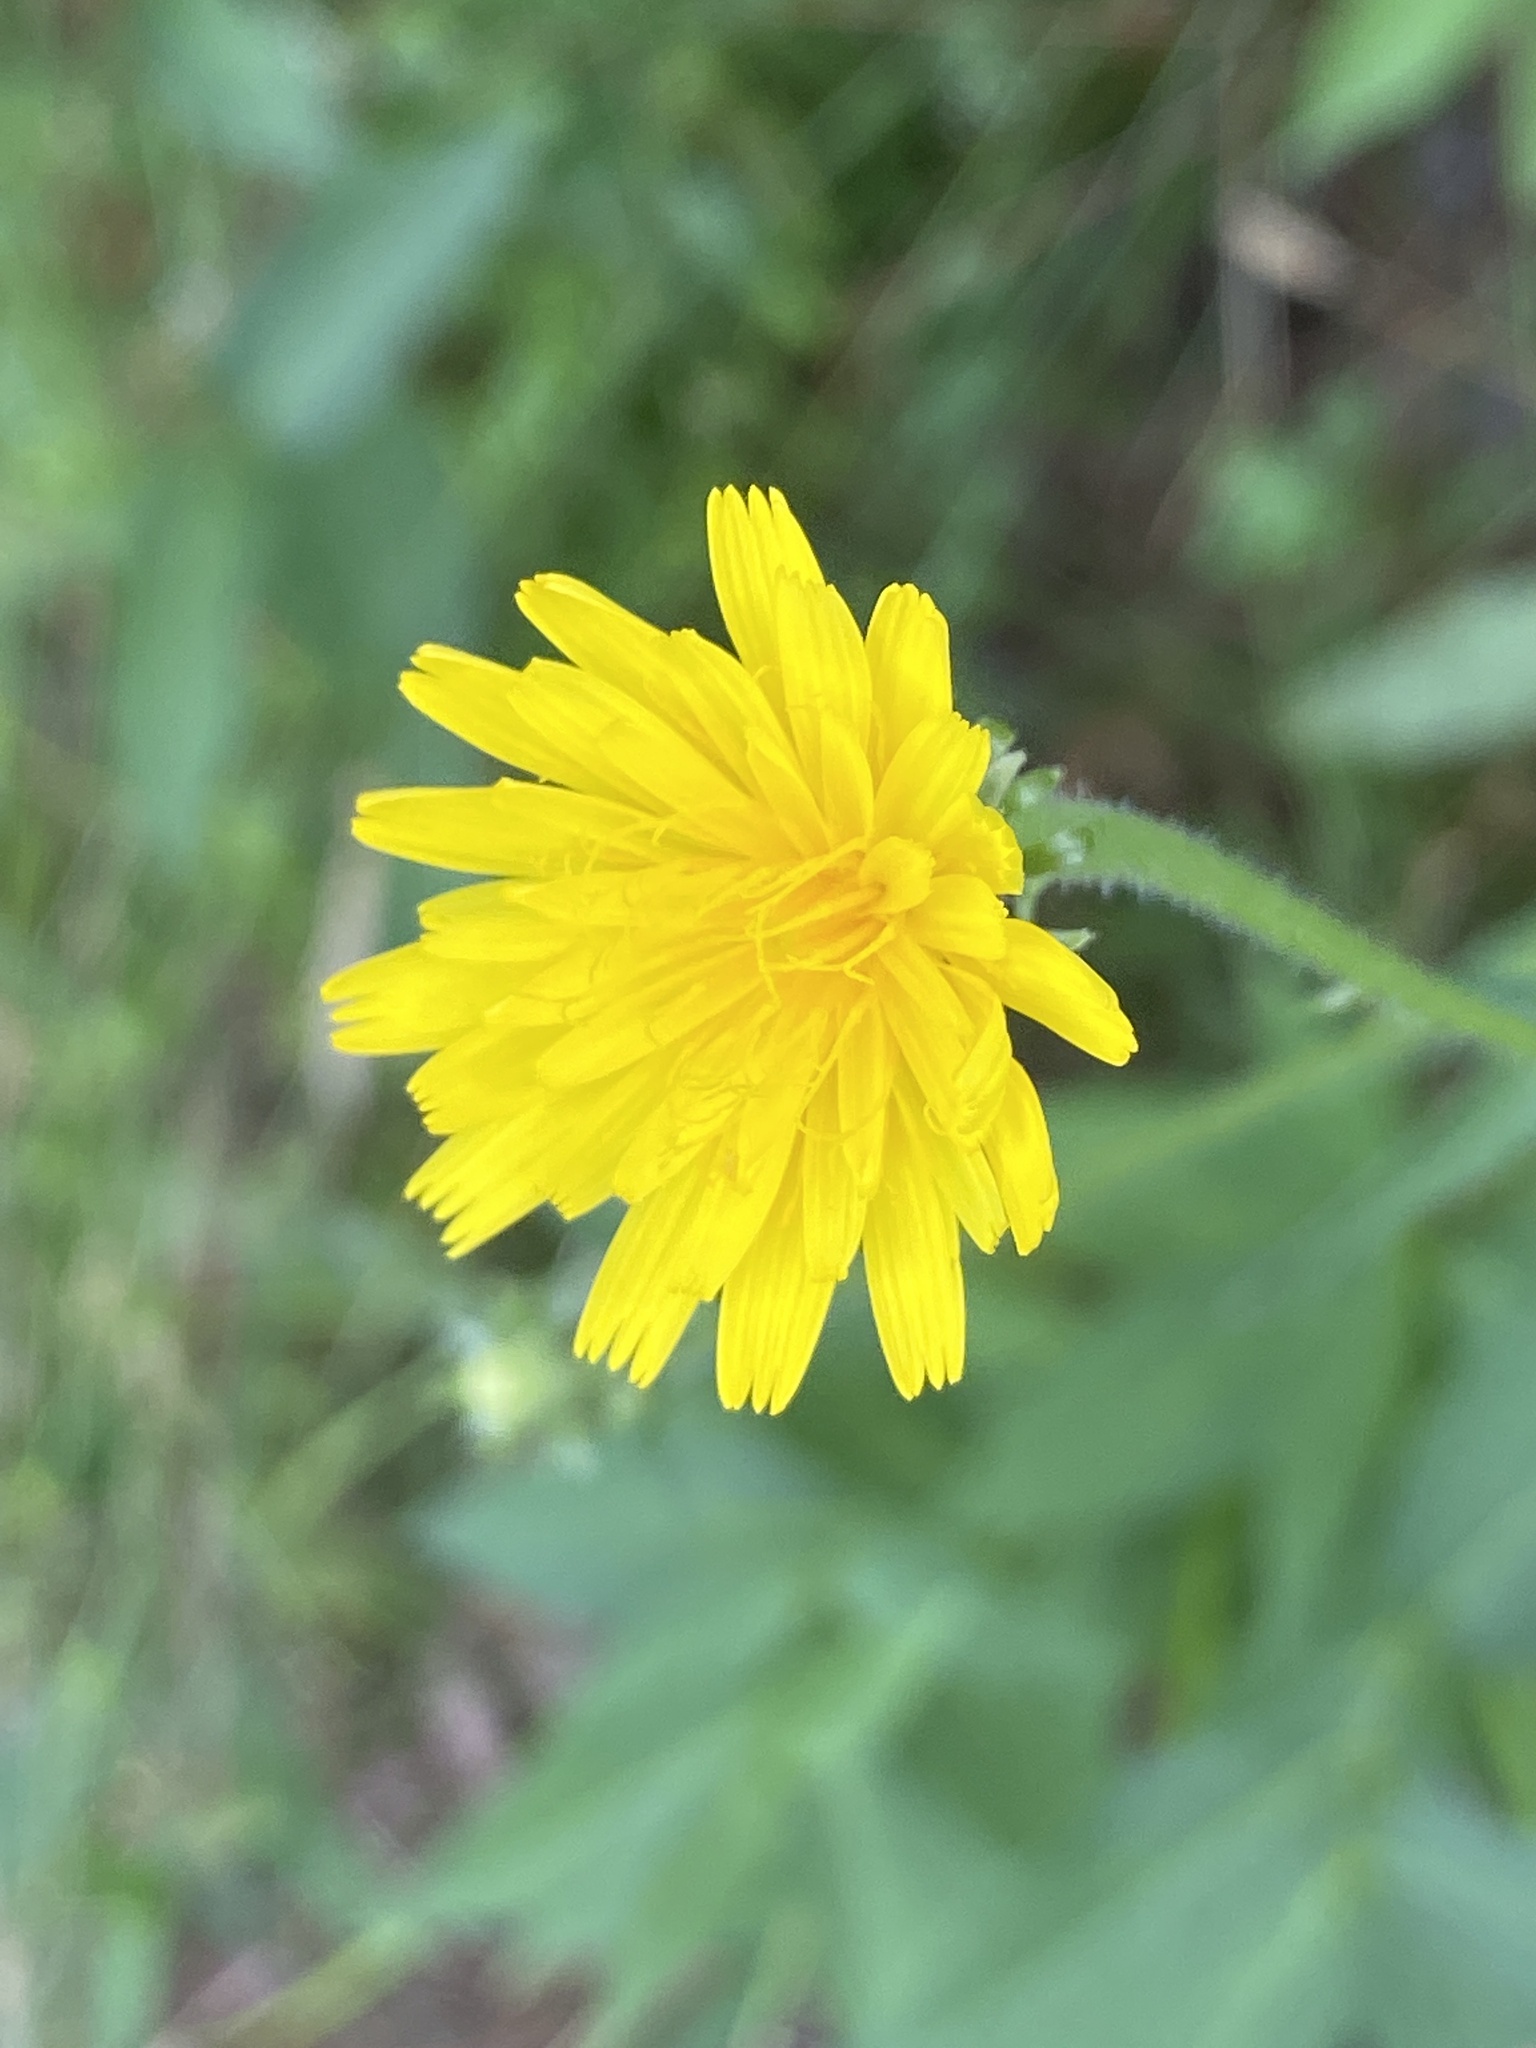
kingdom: Plantae
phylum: Tracheophyta
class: Magnoliopsida
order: Asterales
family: Asteraceae
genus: Picris
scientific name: Picris hieracioides
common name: Hawkweed oxtongue
